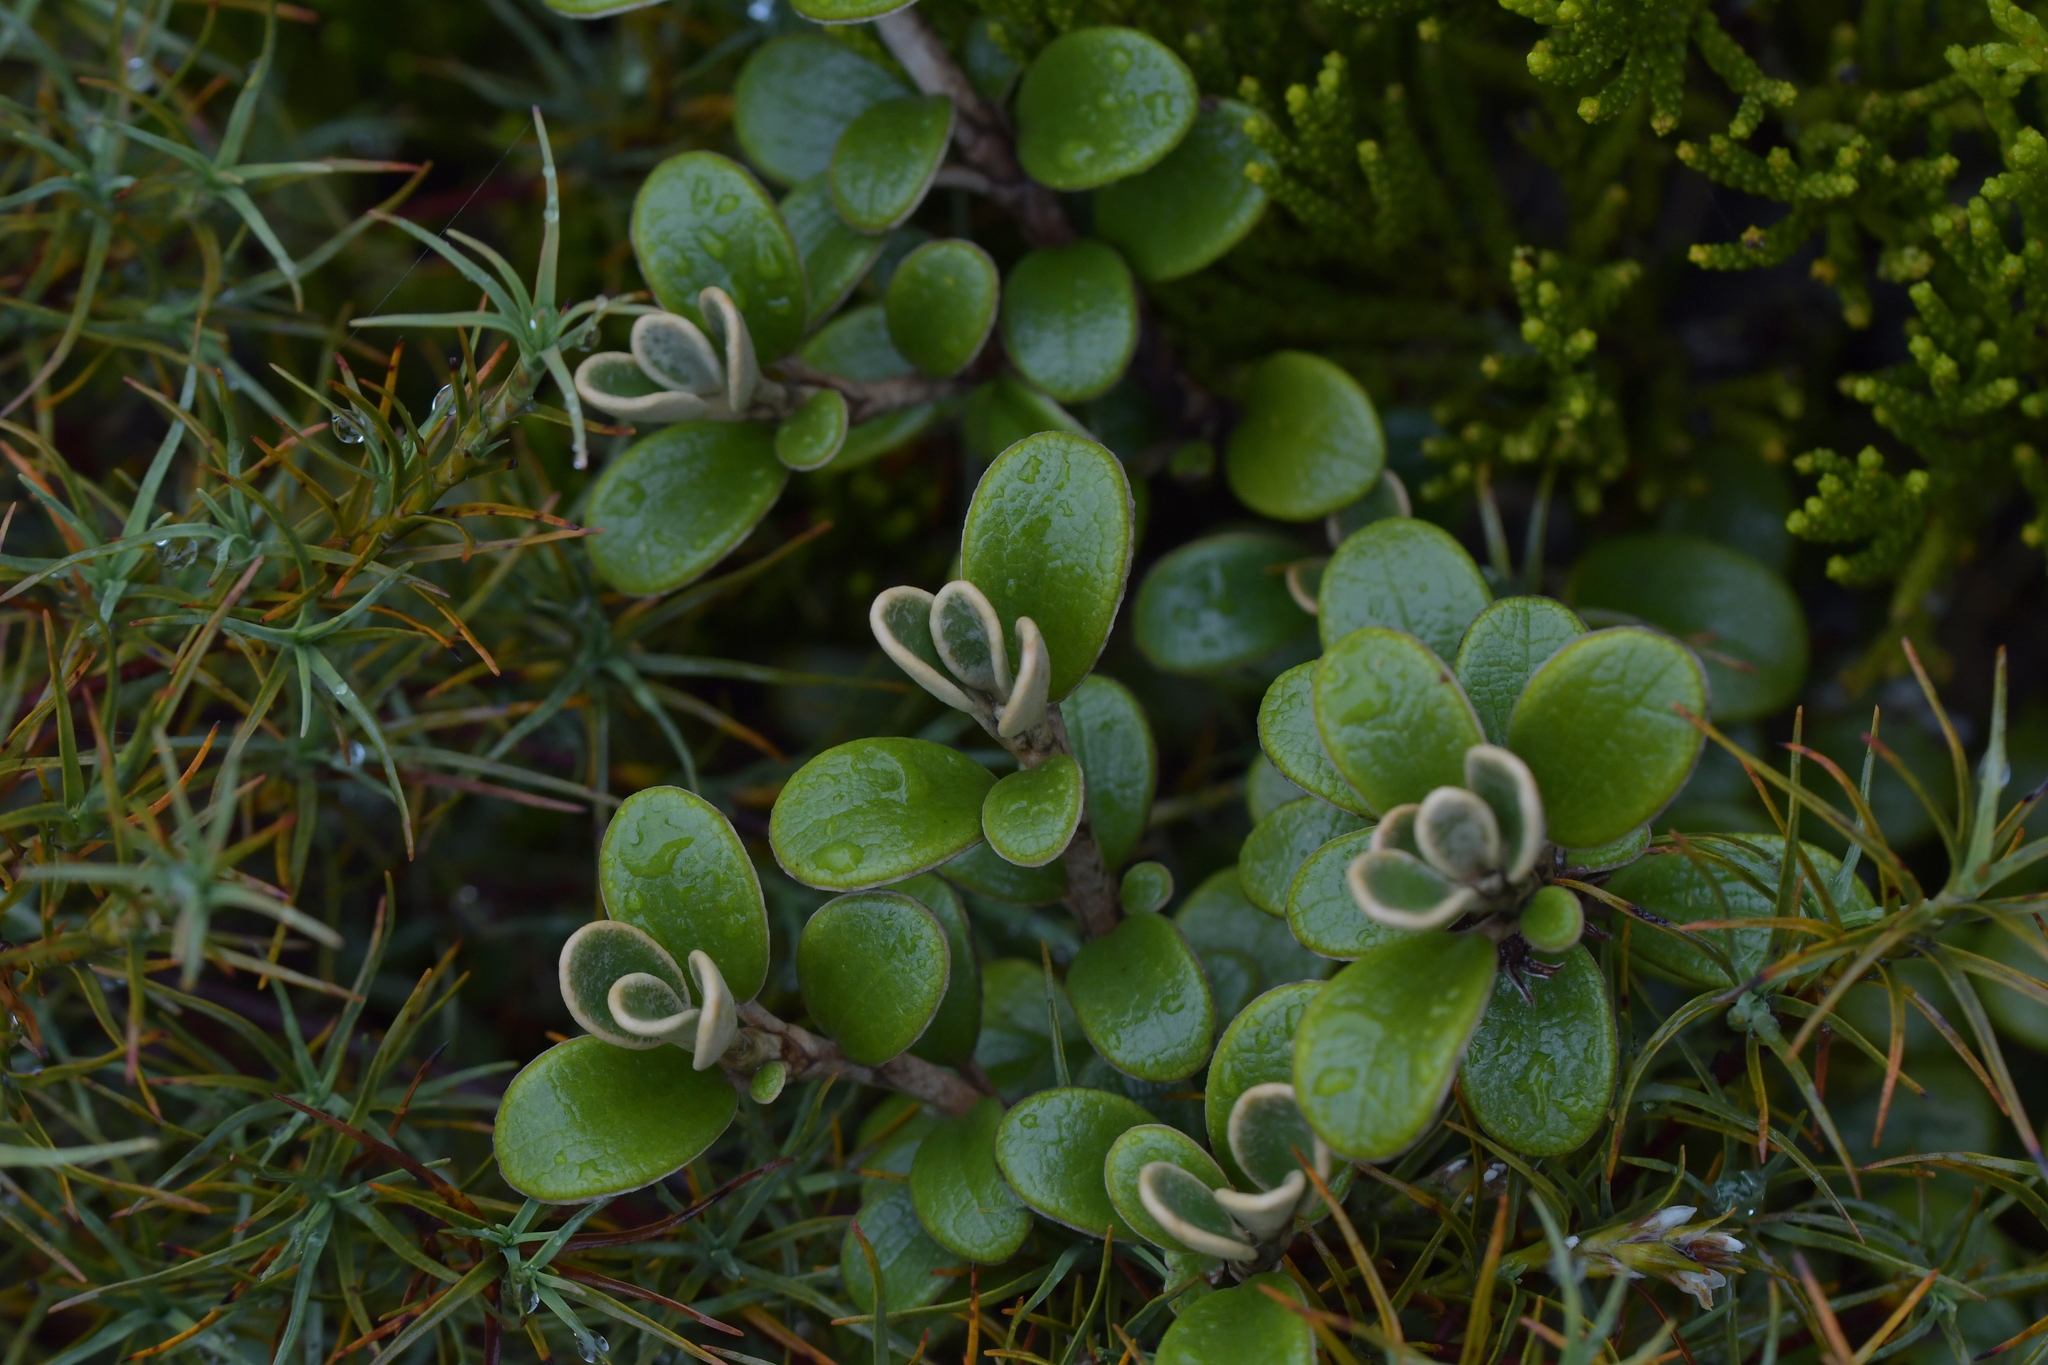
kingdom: Plantae
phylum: Tracheophyta
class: Magnoliopsida
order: Asterales
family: Asteraceae
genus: Brachyglottis
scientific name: Brachyglottis bidwillii
